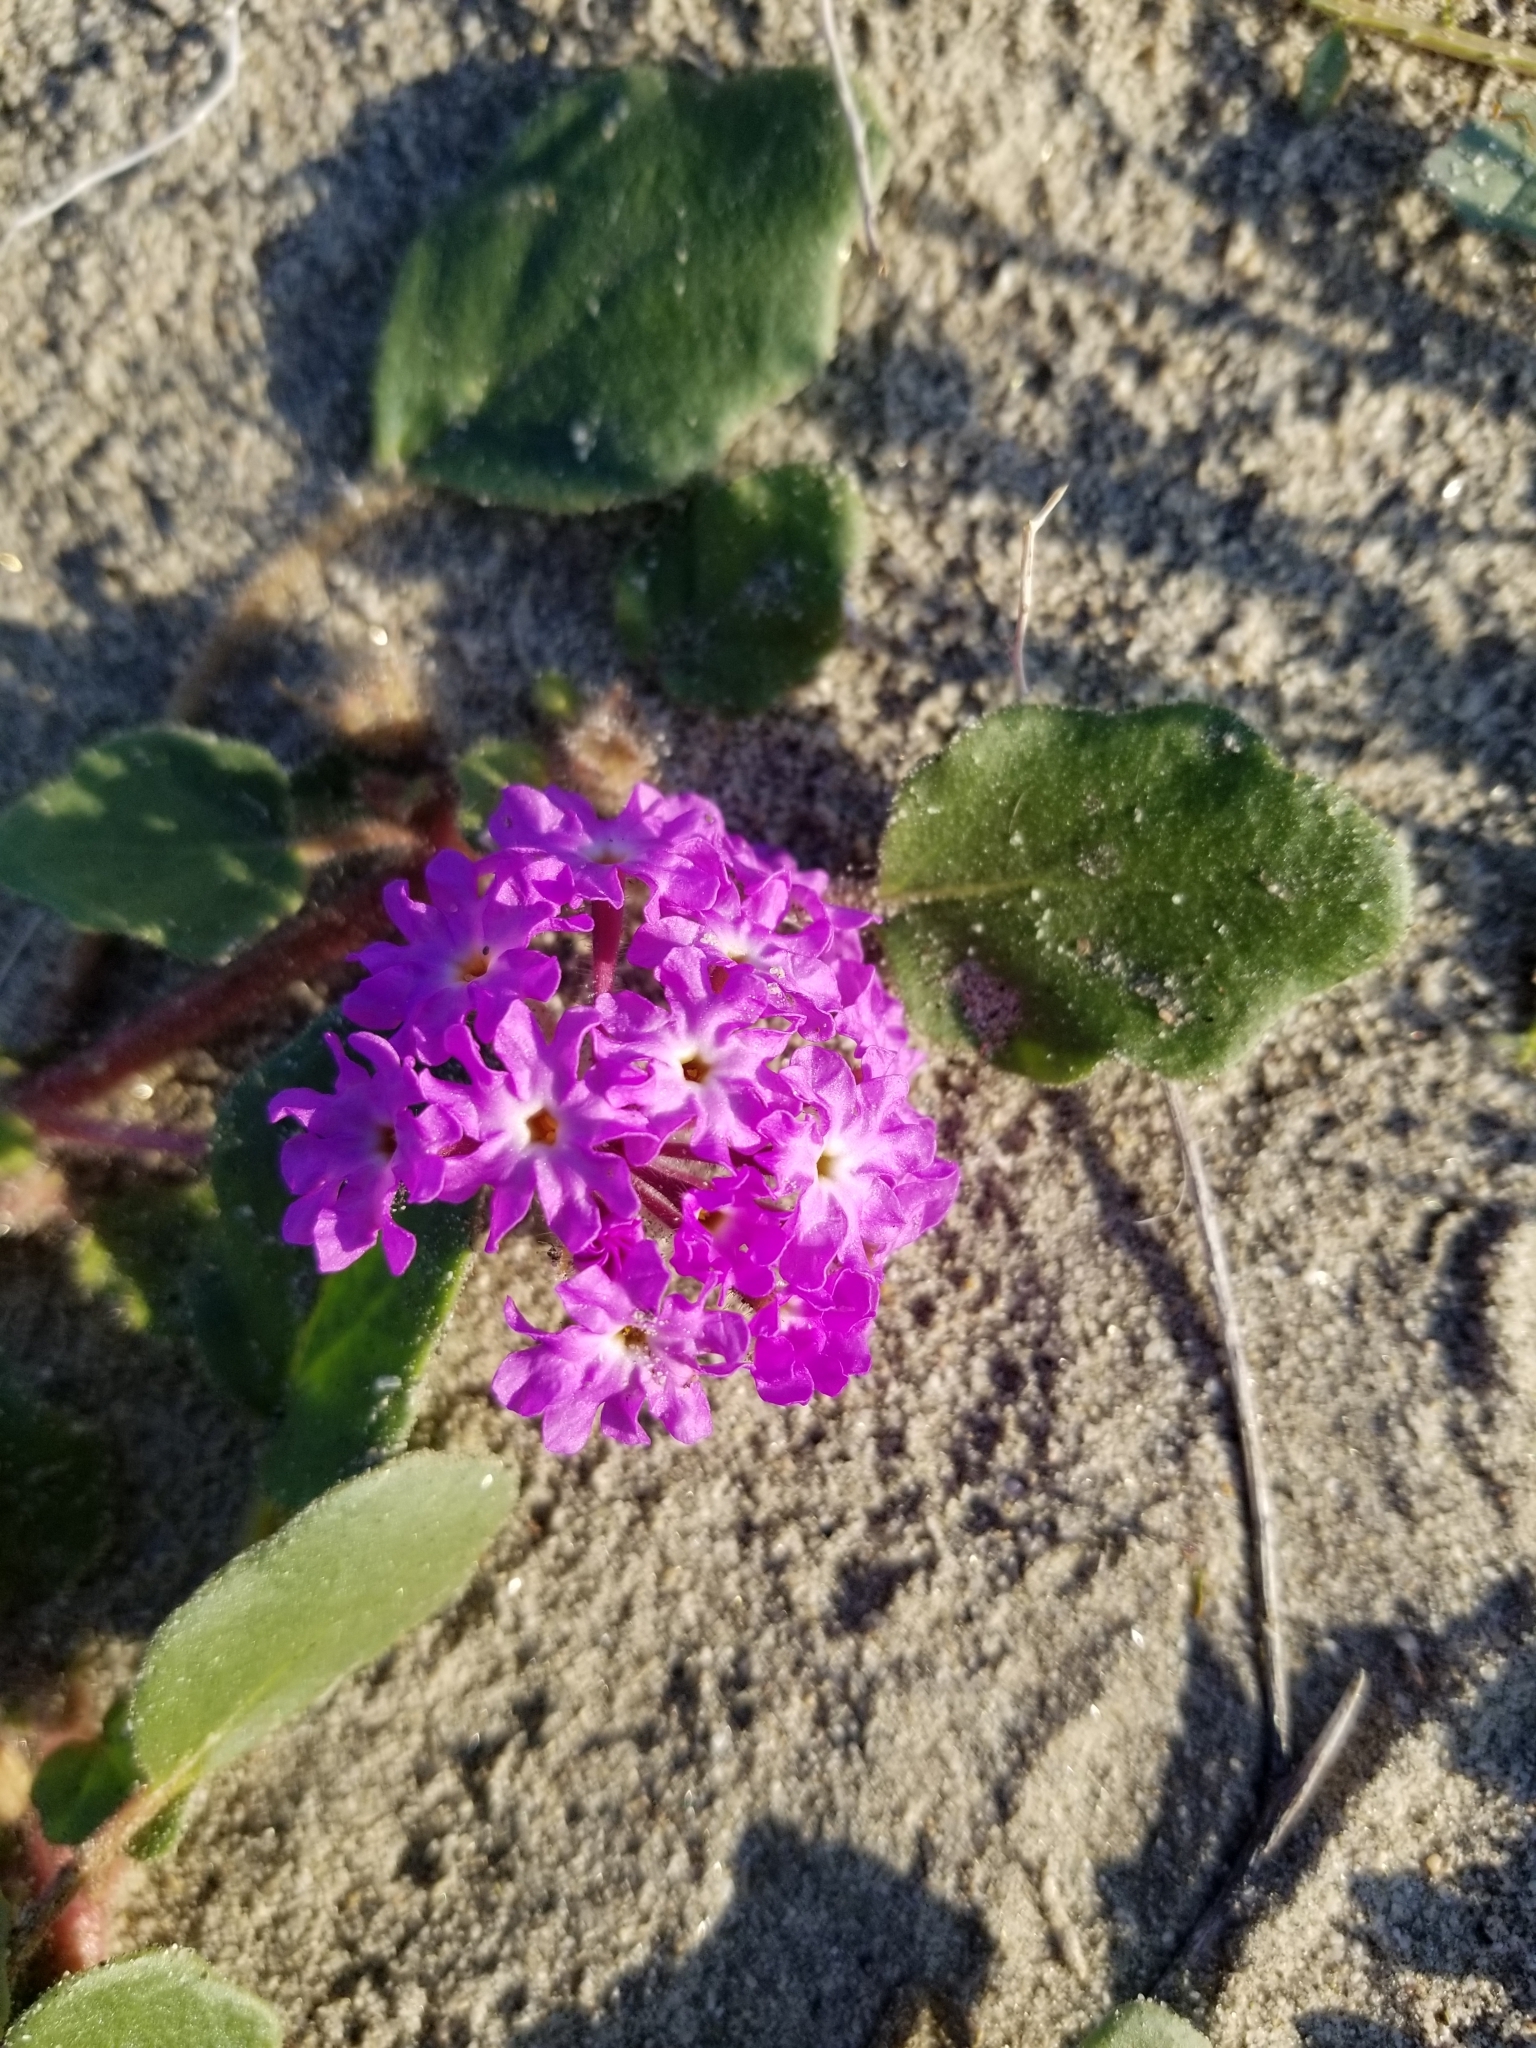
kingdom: Plantae
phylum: Tracheophyta
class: Magnoliopsida
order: Caryophyllales
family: Nyctaginaceae
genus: Abronia
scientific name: Abronia villosa
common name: Desert sand-verbena
